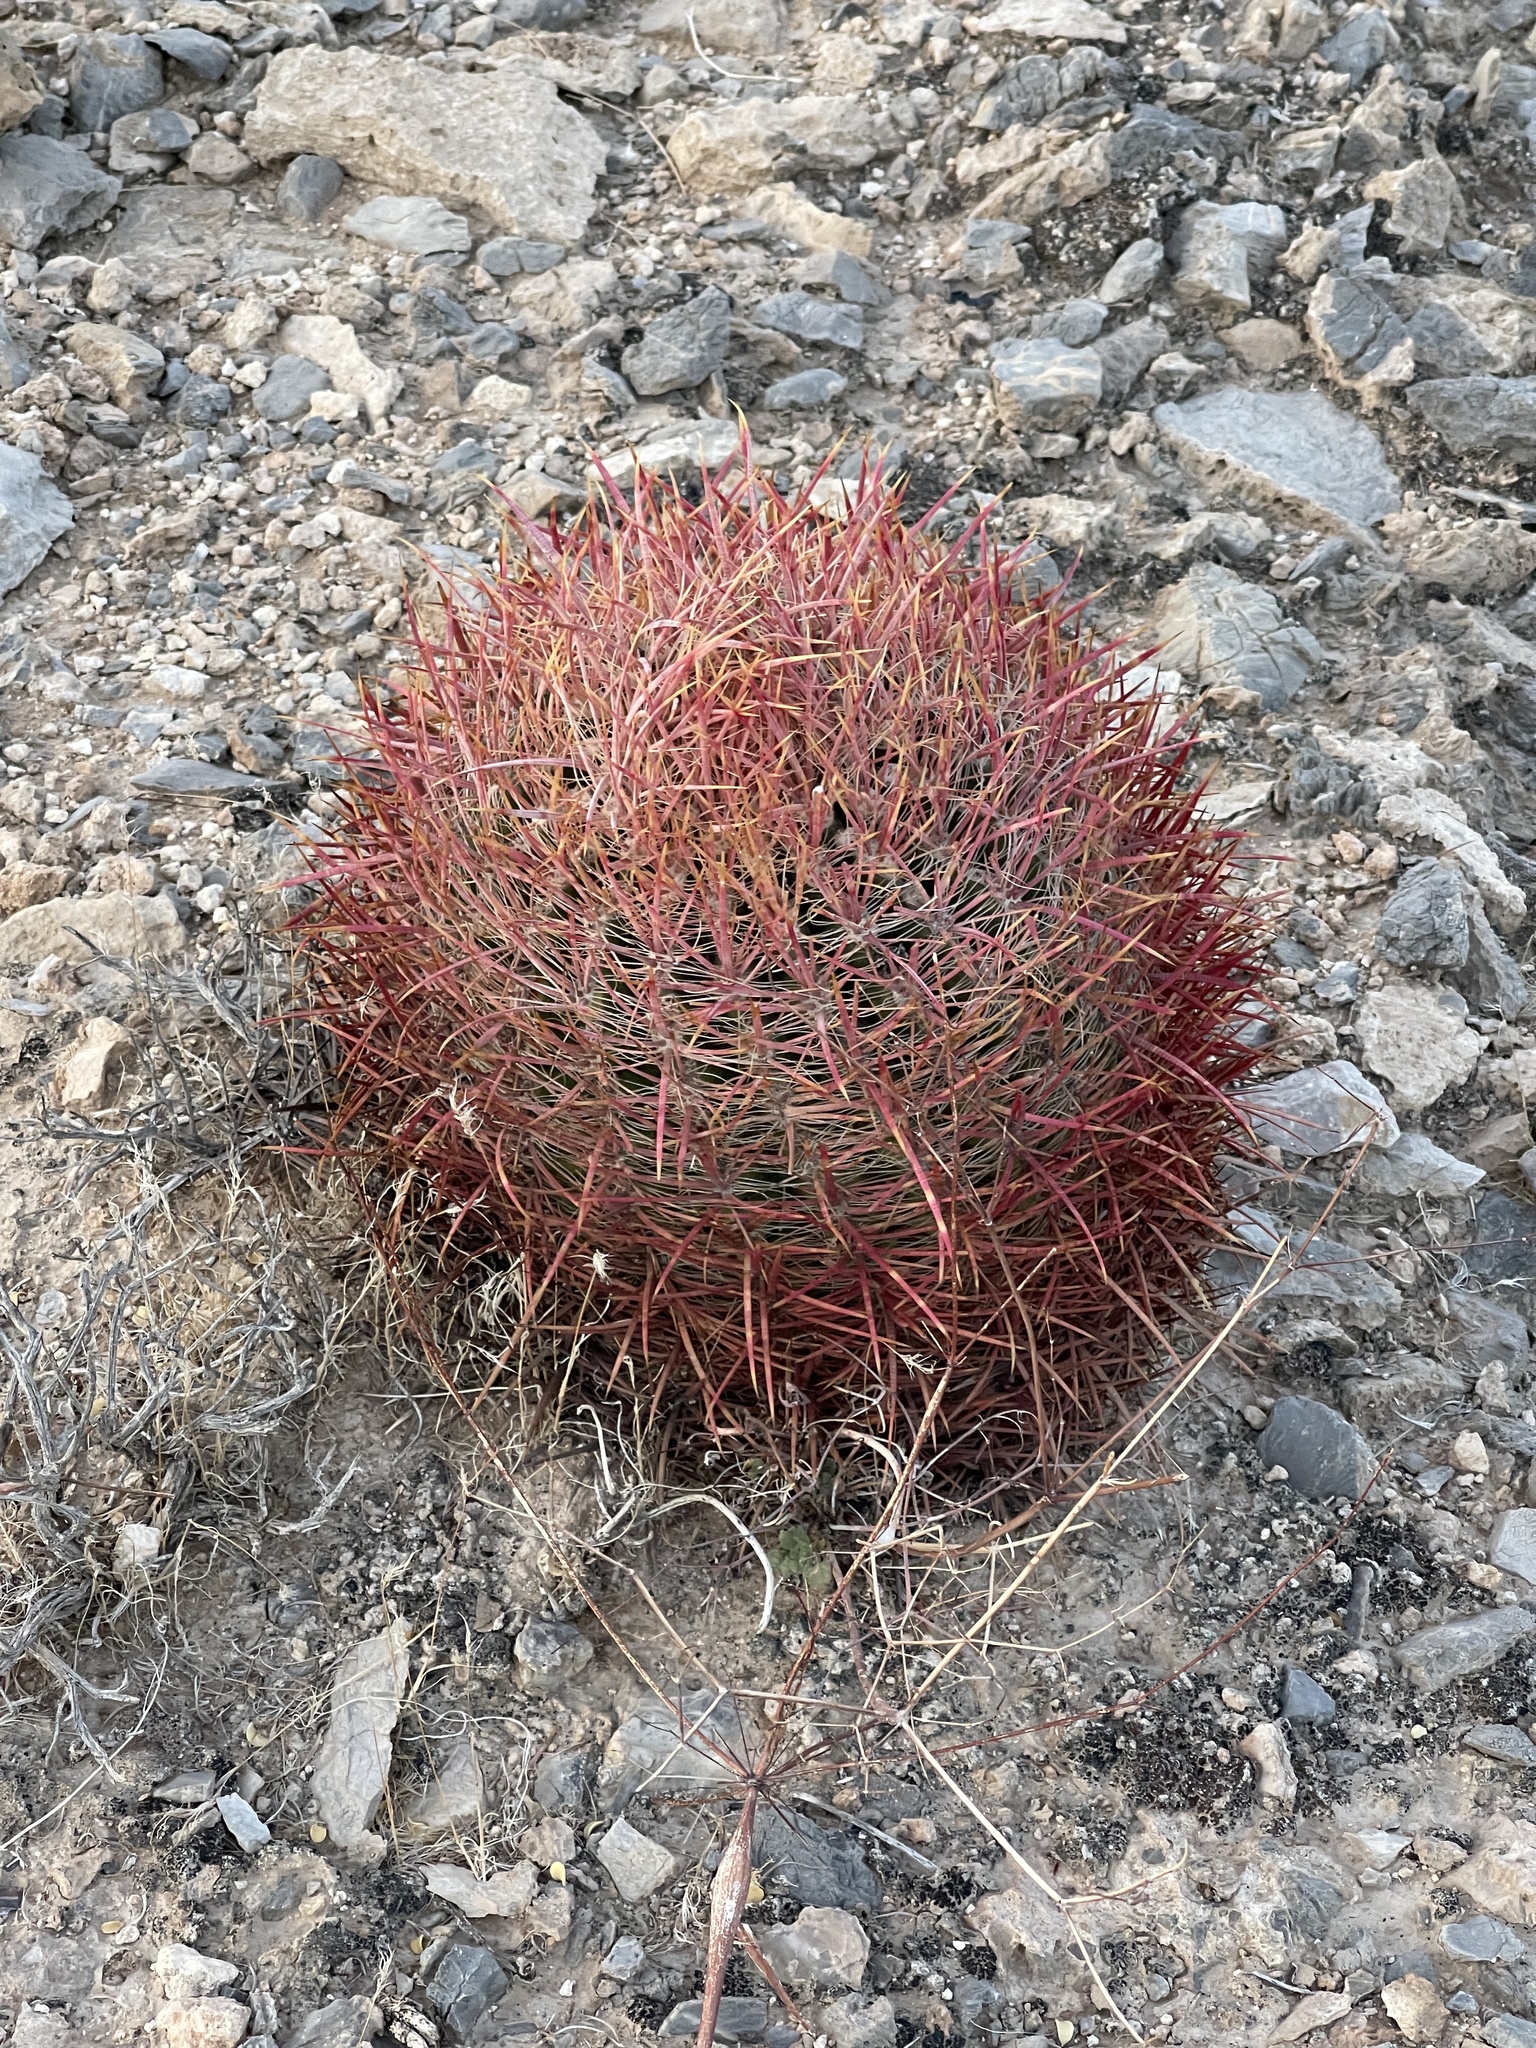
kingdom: Plantae
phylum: Tracheophyta
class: Magnoliopsida
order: Caryophyllales
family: Cactaceae
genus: Ferocactus
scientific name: Ferocactus cylindraceus
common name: California barrel cactus
